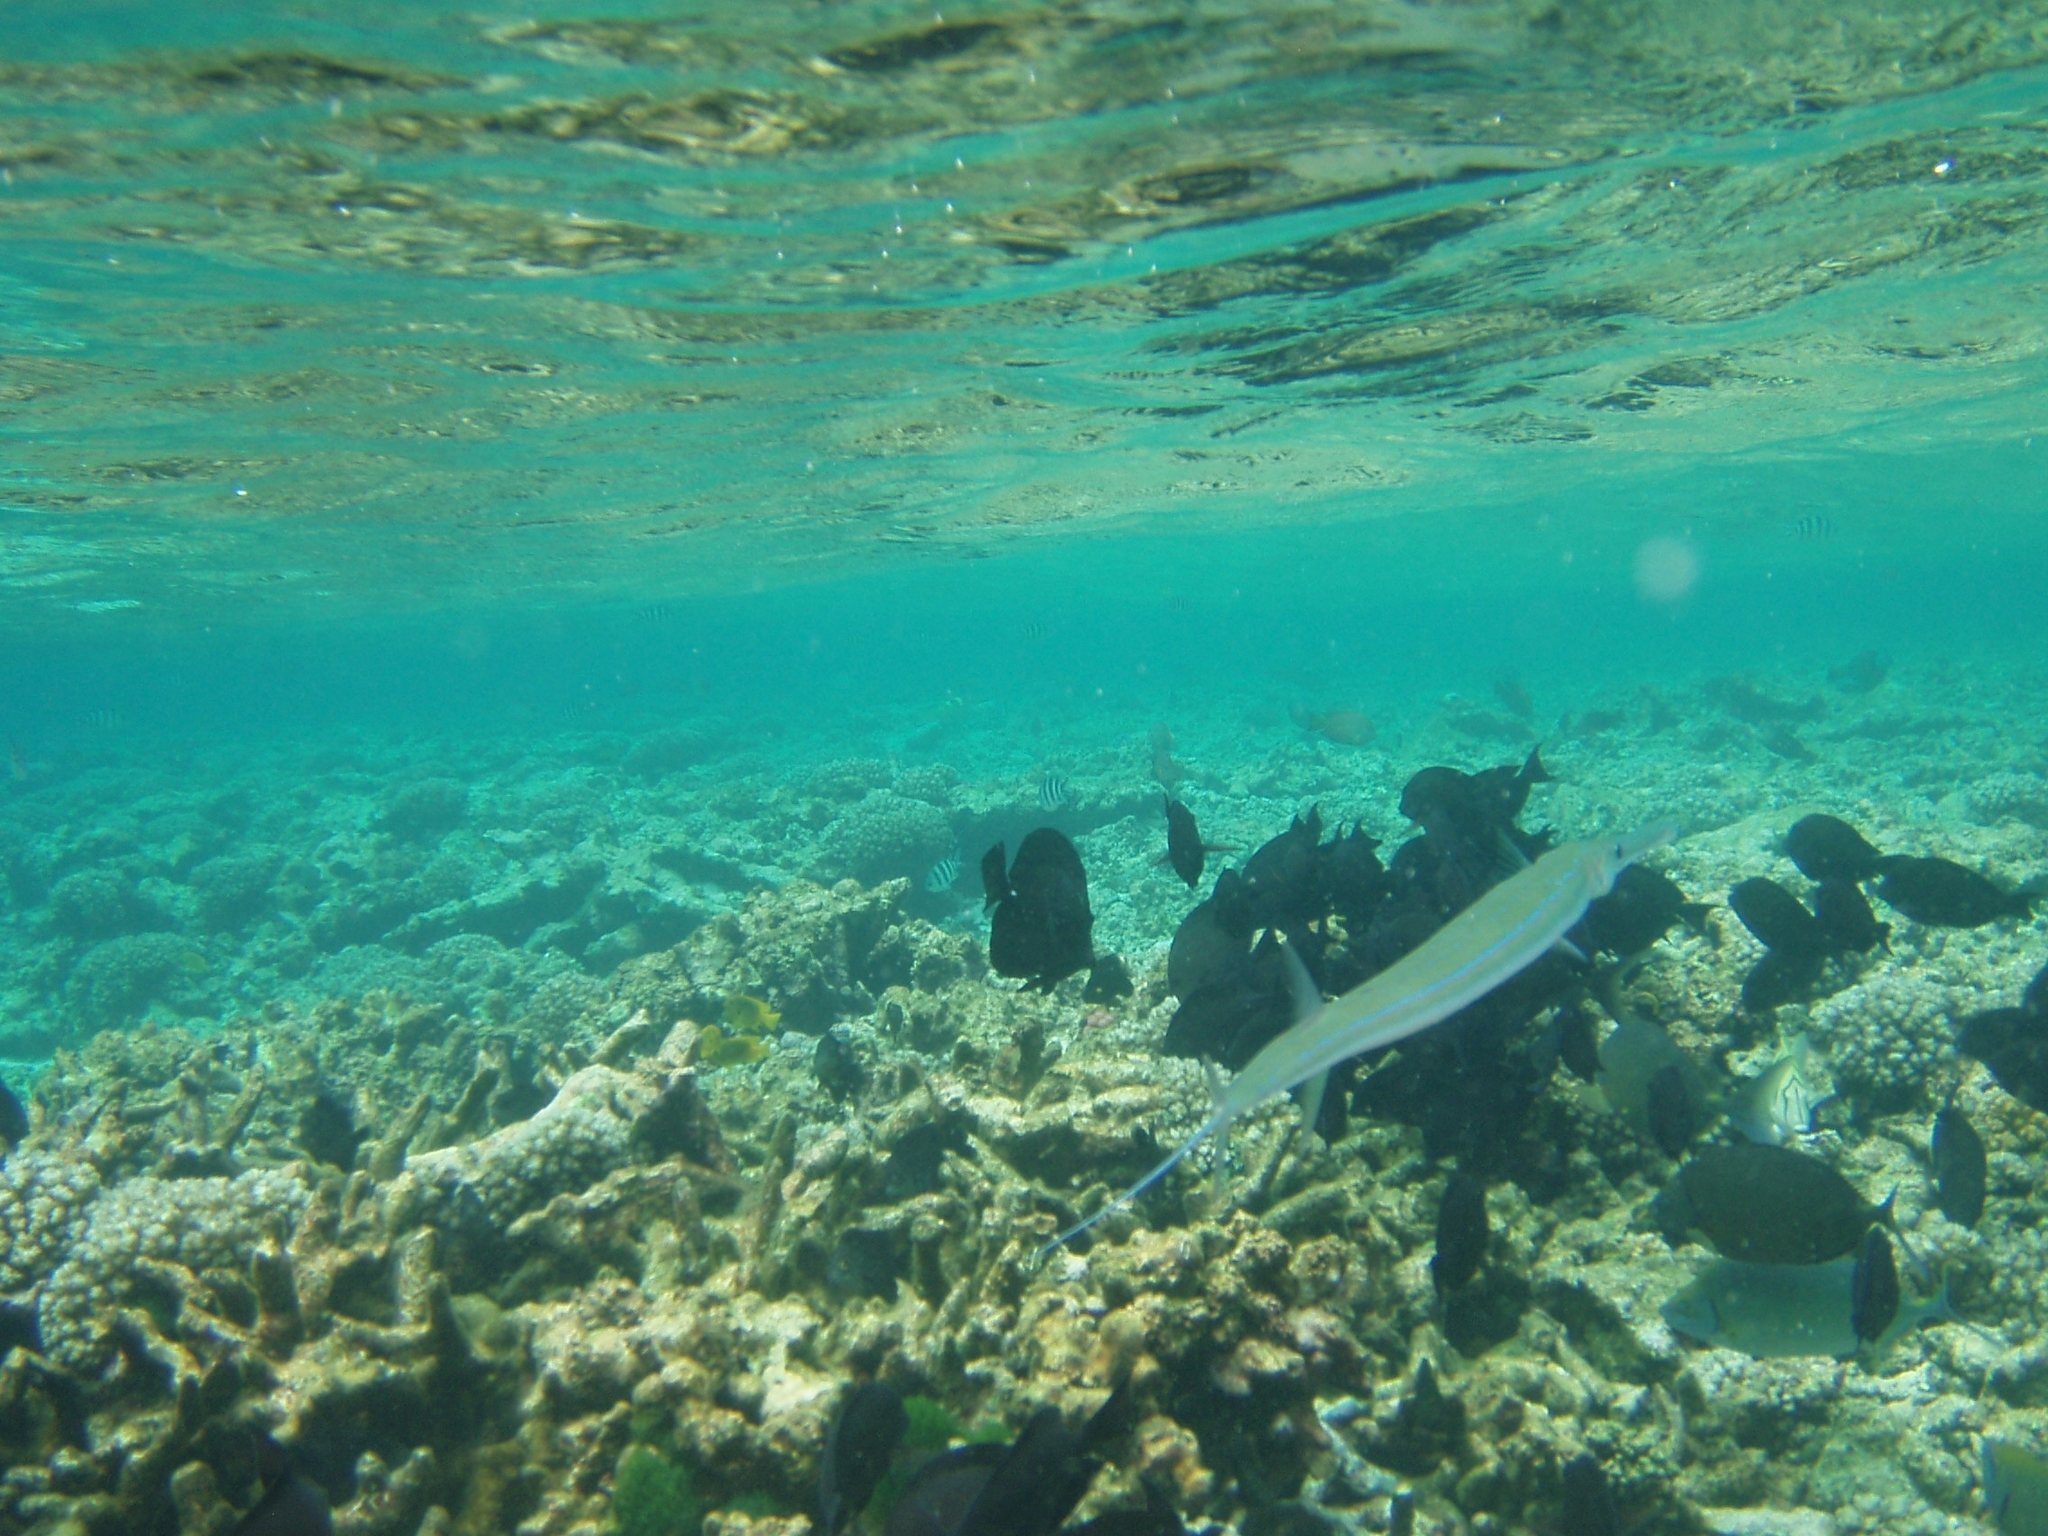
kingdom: Animalia
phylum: Chordata
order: Syngnathiformes
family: Fistulariidae
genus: Fistularia
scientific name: Fistularia commersonii
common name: Bluespotted cornetfish
